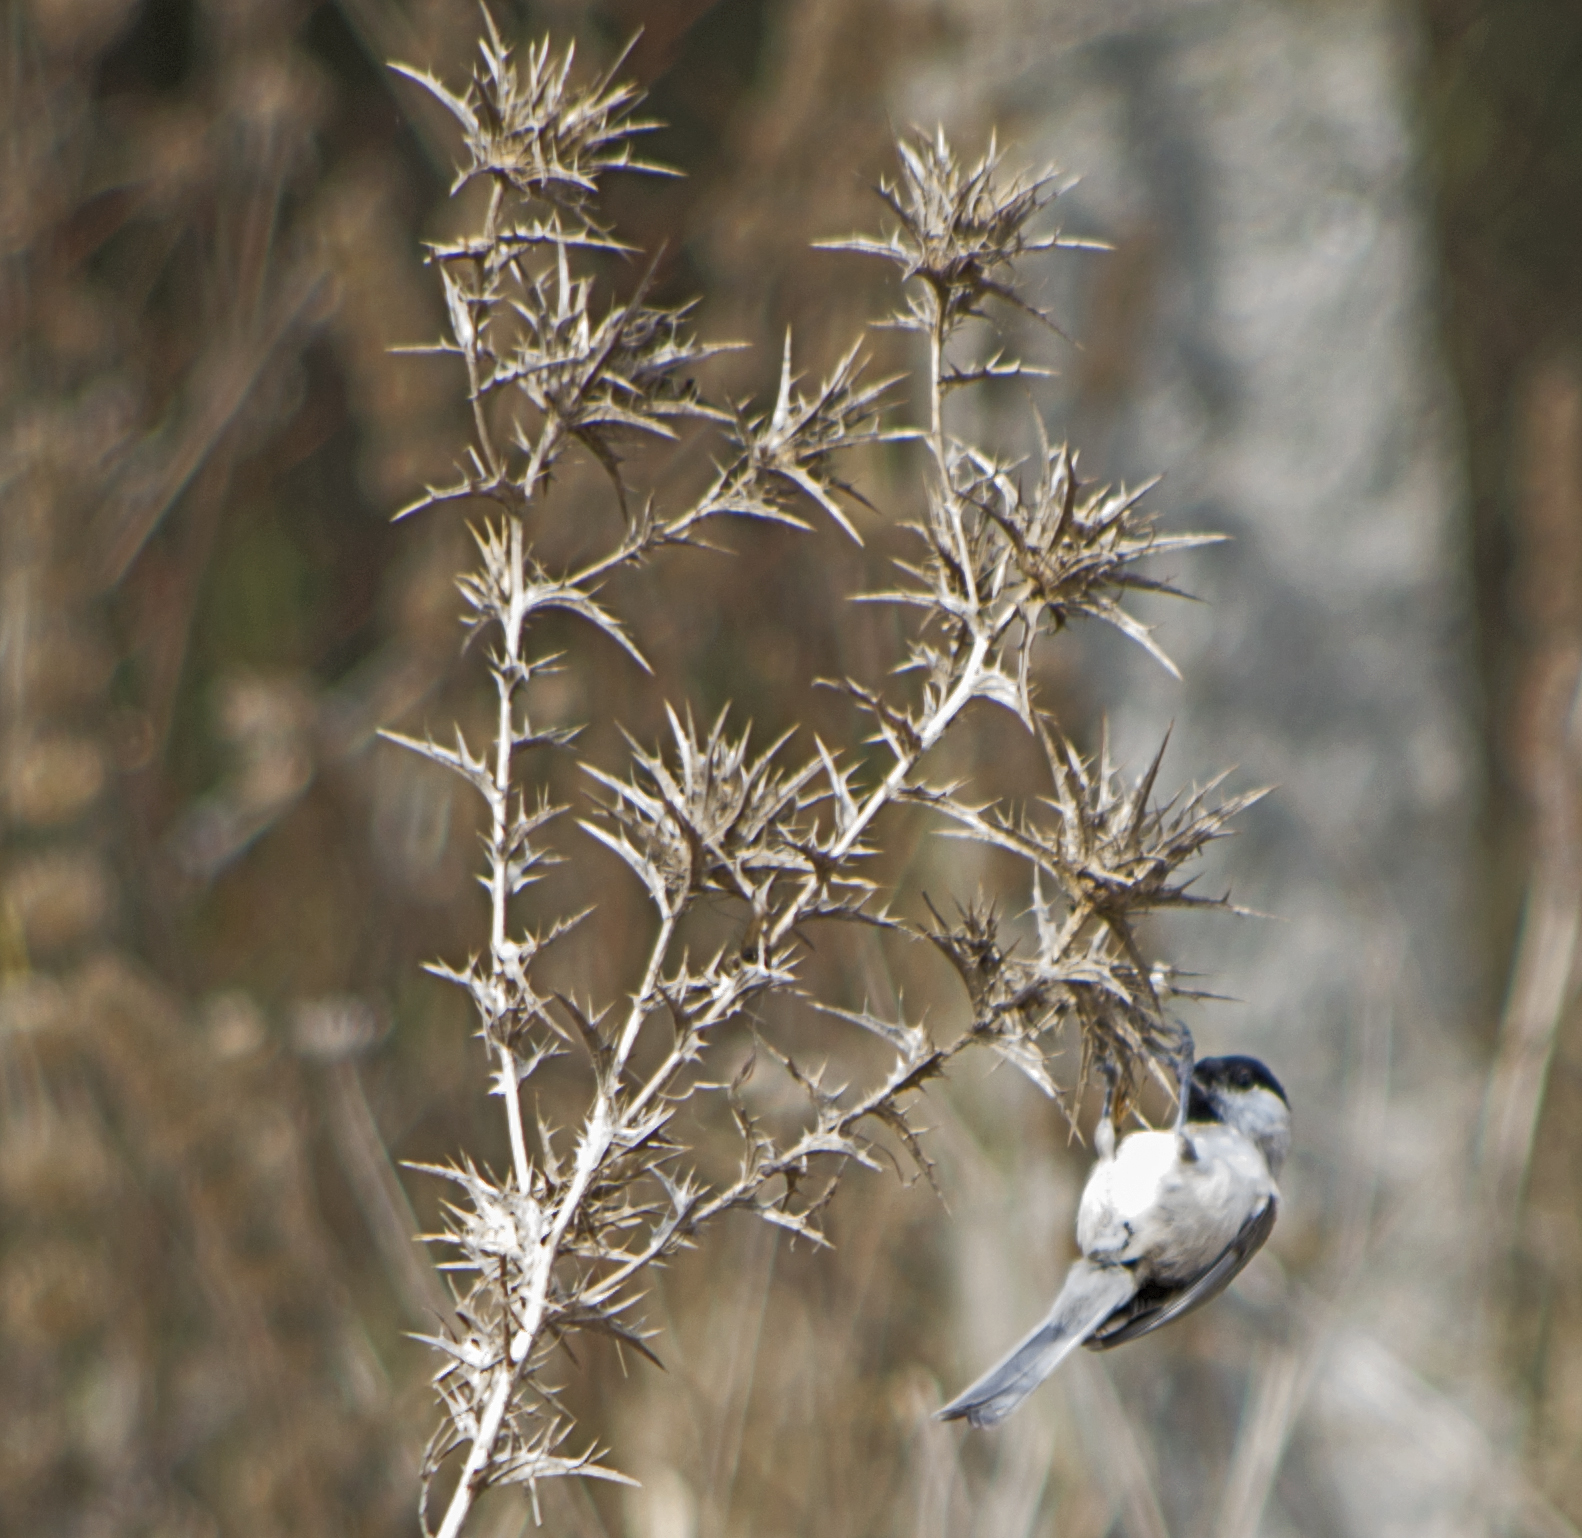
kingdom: Animalia
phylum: Chordata
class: Aves
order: Passeriformes
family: Paridae
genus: Poecile
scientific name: Poecile palustris
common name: Marsh tit
